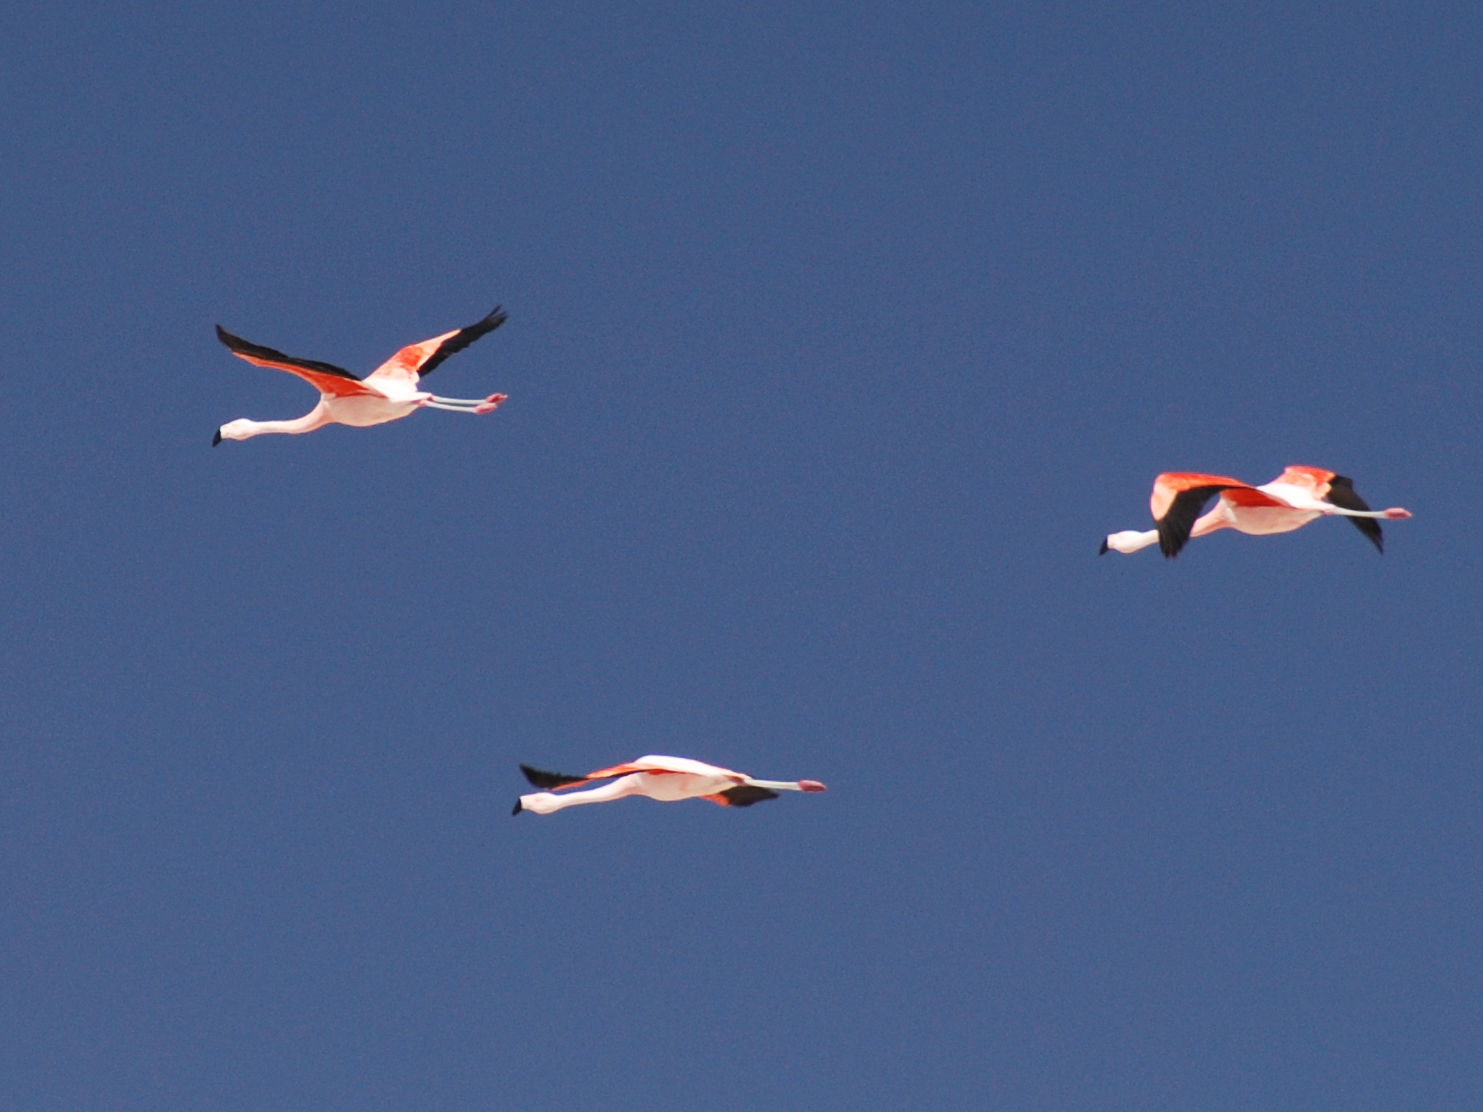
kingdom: Animalia
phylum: Chordata
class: Aves
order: Phoenicopteriformes
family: Phoenicopteridae
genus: Phoenicopterus
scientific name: Phoenicopterus chilensis
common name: Chilean flamingo
